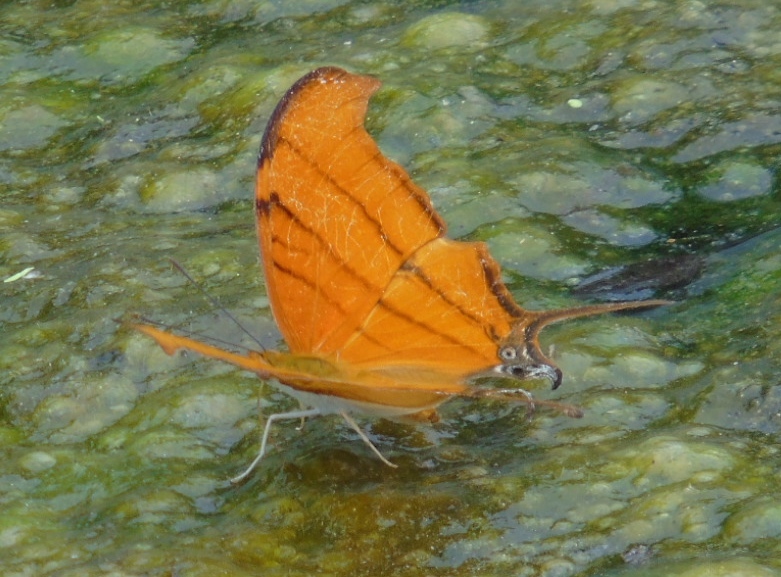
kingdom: Animalia
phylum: Arthropoda
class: Insecta
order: Lepidoptera
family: Nymphalidae
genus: Marpesia
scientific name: Marpesia petreus
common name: Red dagger wing
